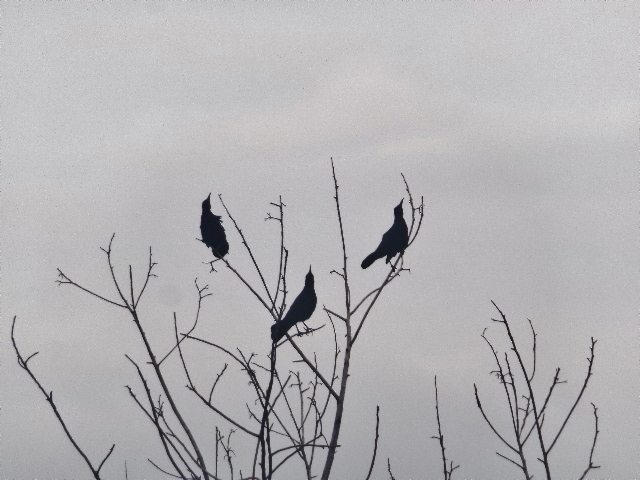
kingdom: Animalia
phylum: Chordata
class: Aves
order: Passeriformes
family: Icteridae
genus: Quiscalus
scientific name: Quiscalus mexicanus
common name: Great-tailed grackle
